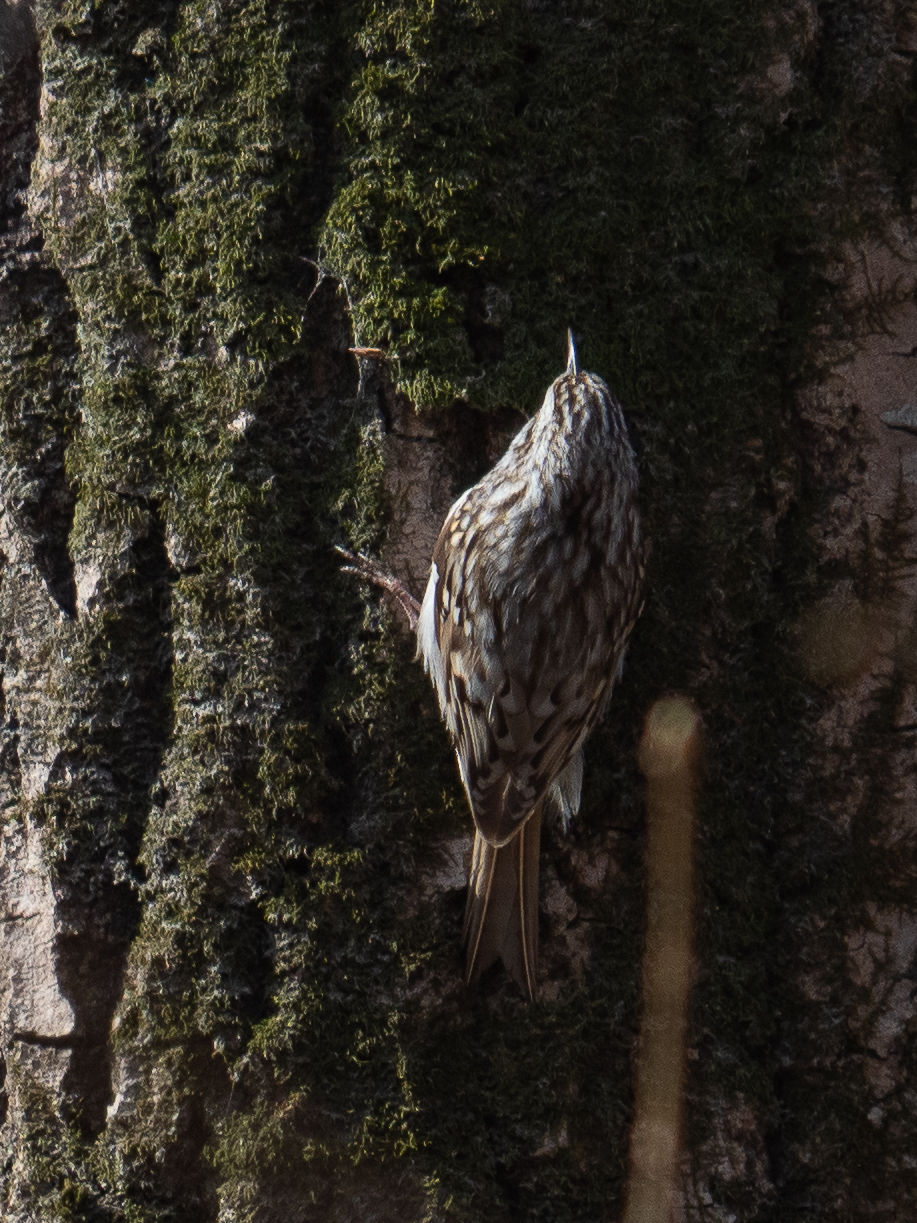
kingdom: Animalia
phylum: Chordata
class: Aves
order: Passeriformes
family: Certhiidae
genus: Certhia
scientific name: Certhia familiaris
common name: Eurasian treecreeper
